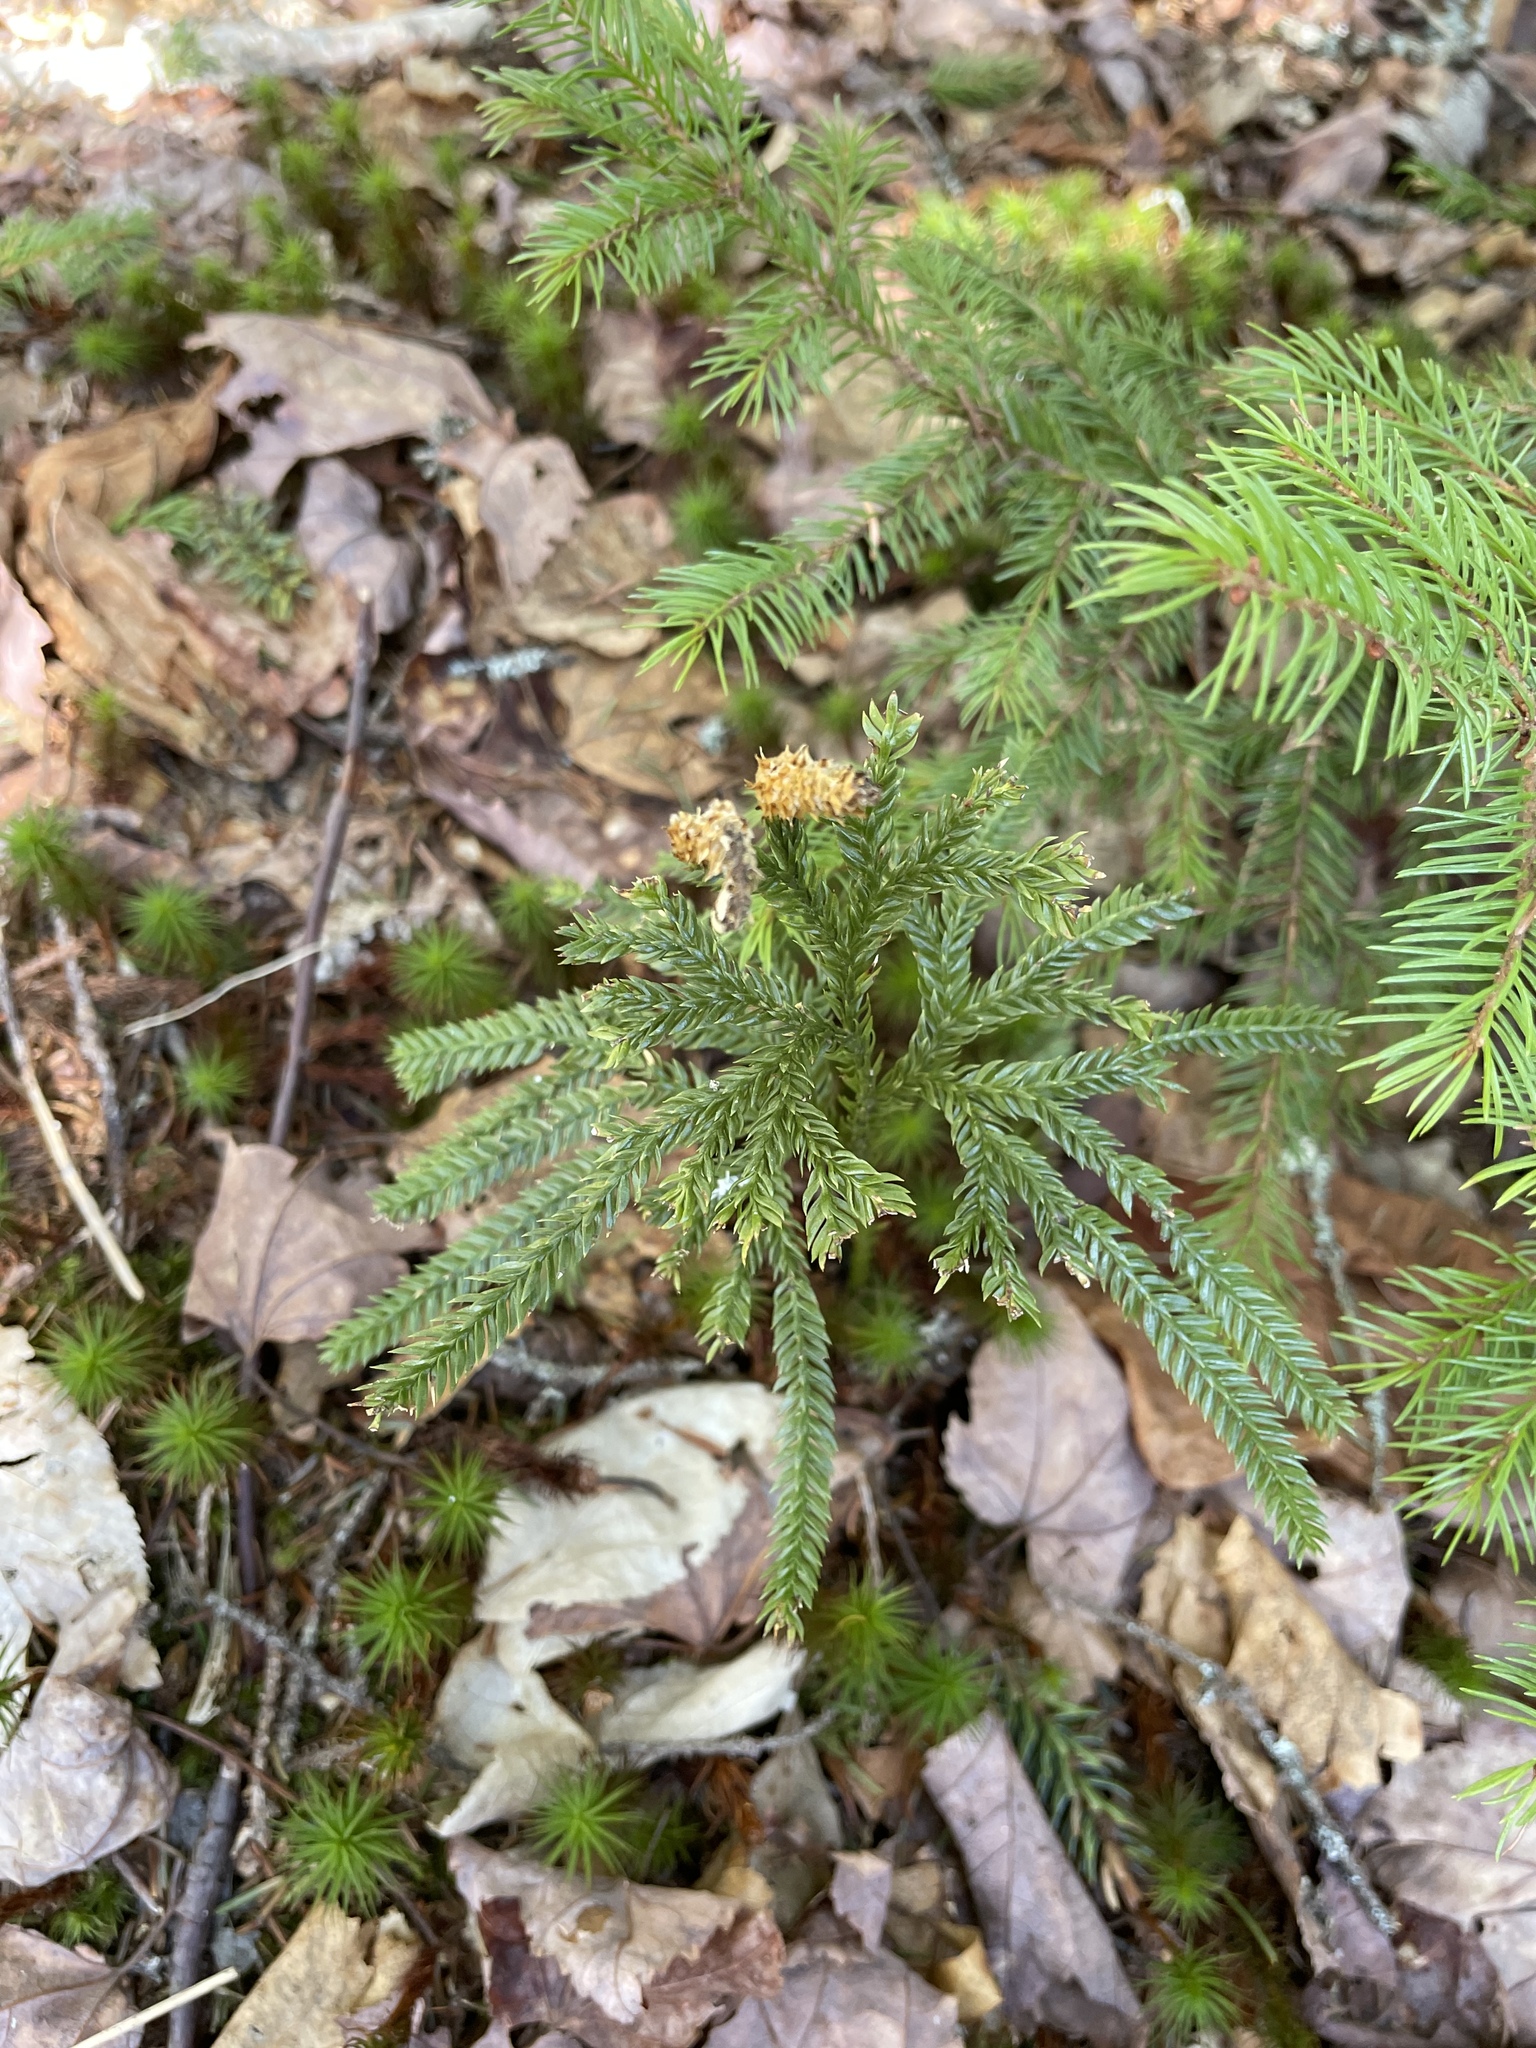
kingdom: Plantae
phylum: Tracheophyta
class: Lycopodiopsida
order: Lycopodiales
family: Lycopodiaceae
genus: Dendrolycopodium
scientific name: Dendrolycopodium obscurum
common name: Common ground-pine
